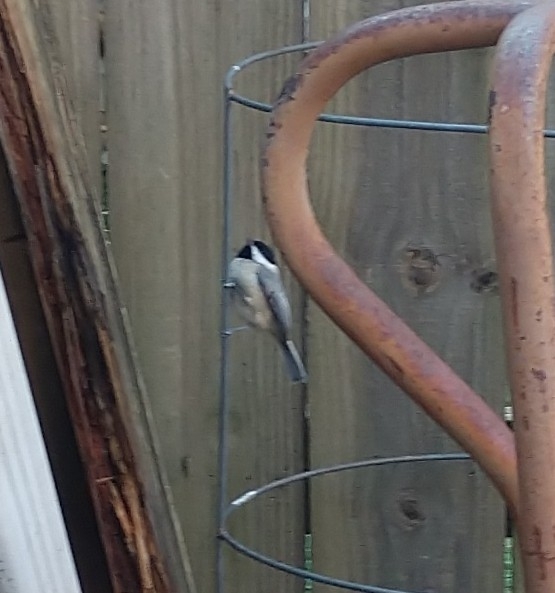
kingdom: Animalia
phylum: Chordata
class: Aves
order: Passeriformes
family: Paridae
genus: Poecile
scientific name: Poecile carolinensis
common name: Carolina chickadee
